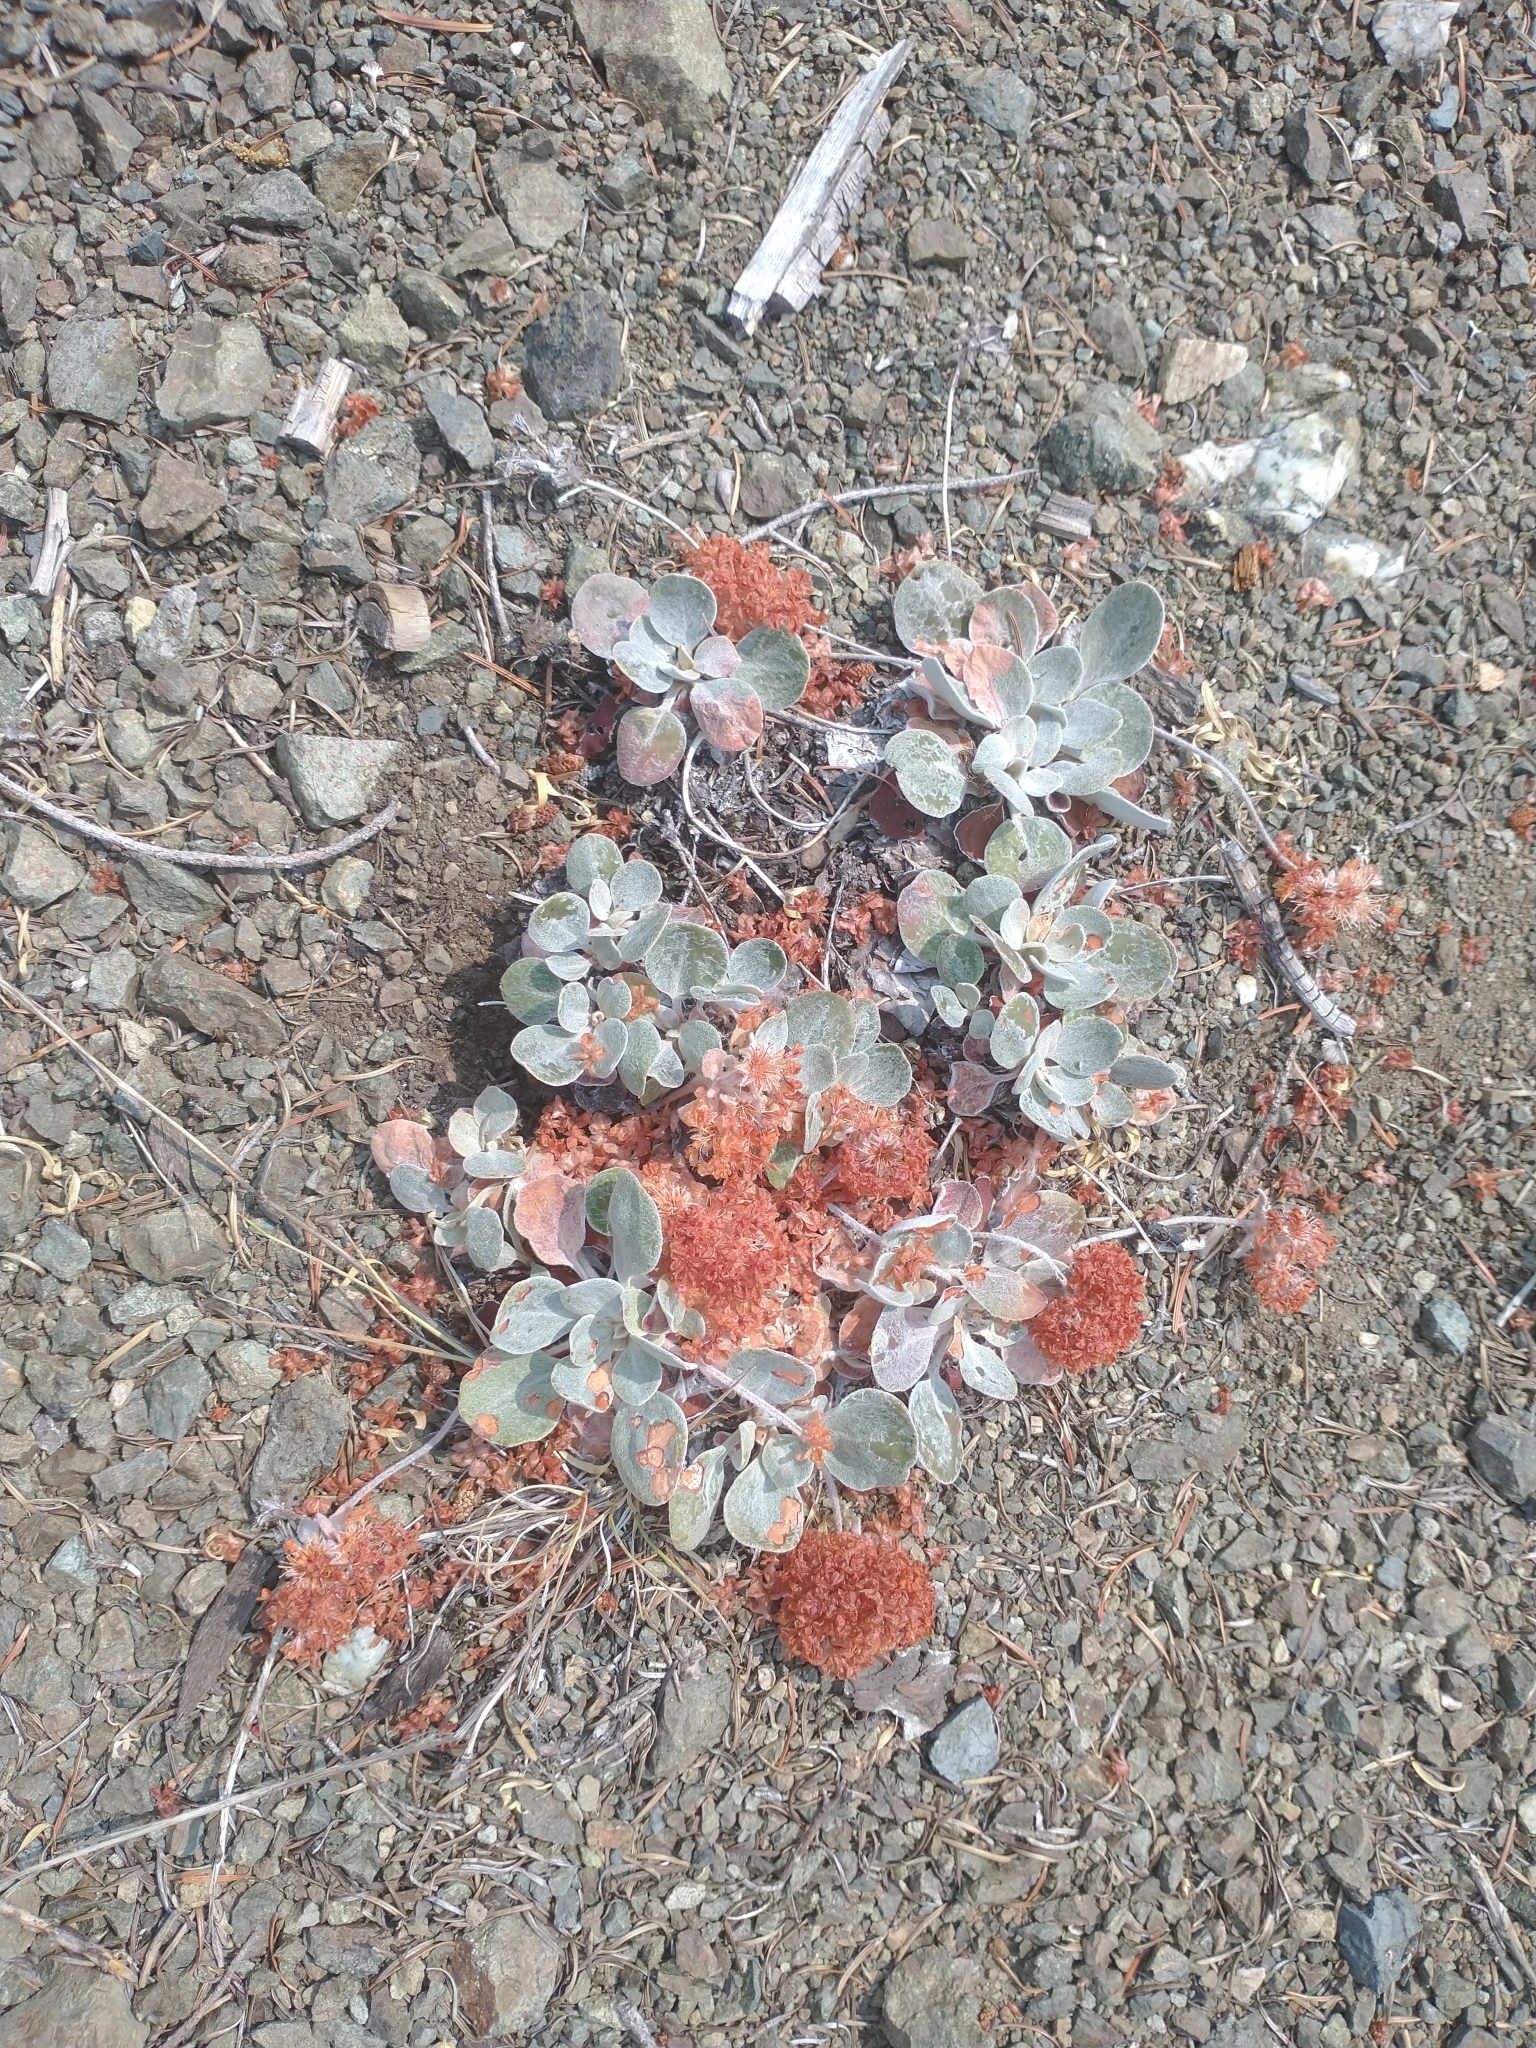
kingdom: Plantae
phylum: Tracheophyta
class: Magnoliopsida
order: Caryophyllales
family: Polygonaceae
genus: Eriogonum
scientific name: Eriogonum lobbii
